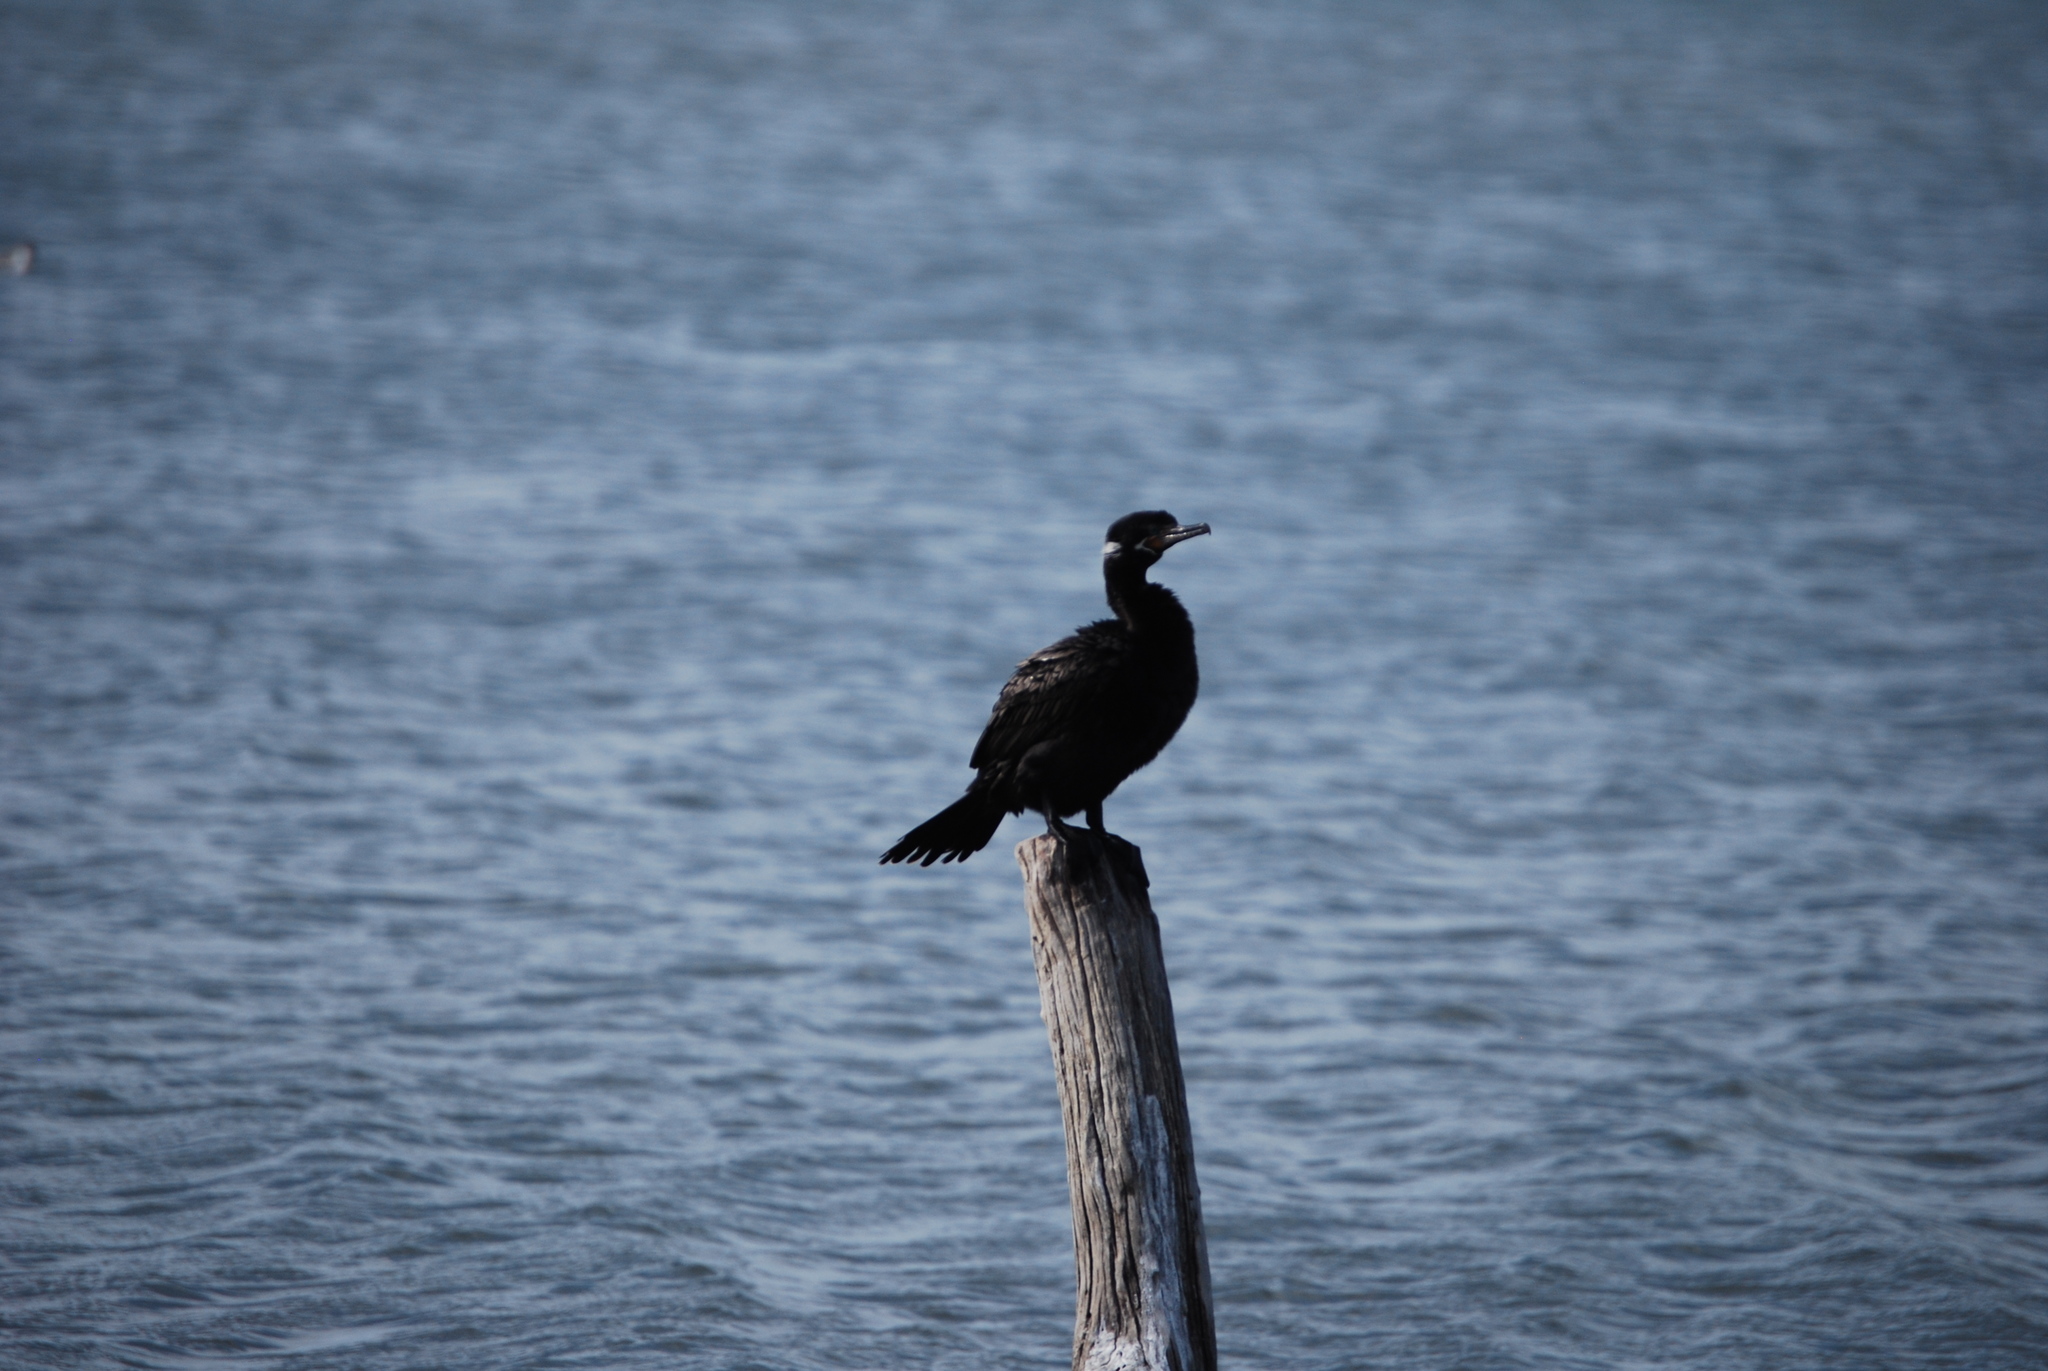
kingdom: Animalia
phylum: Chordata
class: Aves
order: Suliformes
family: Phalacrocoracidae
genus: Phalacrocorax
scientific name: Phalacrocorax brasilianus
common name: Neotropic cormorant
